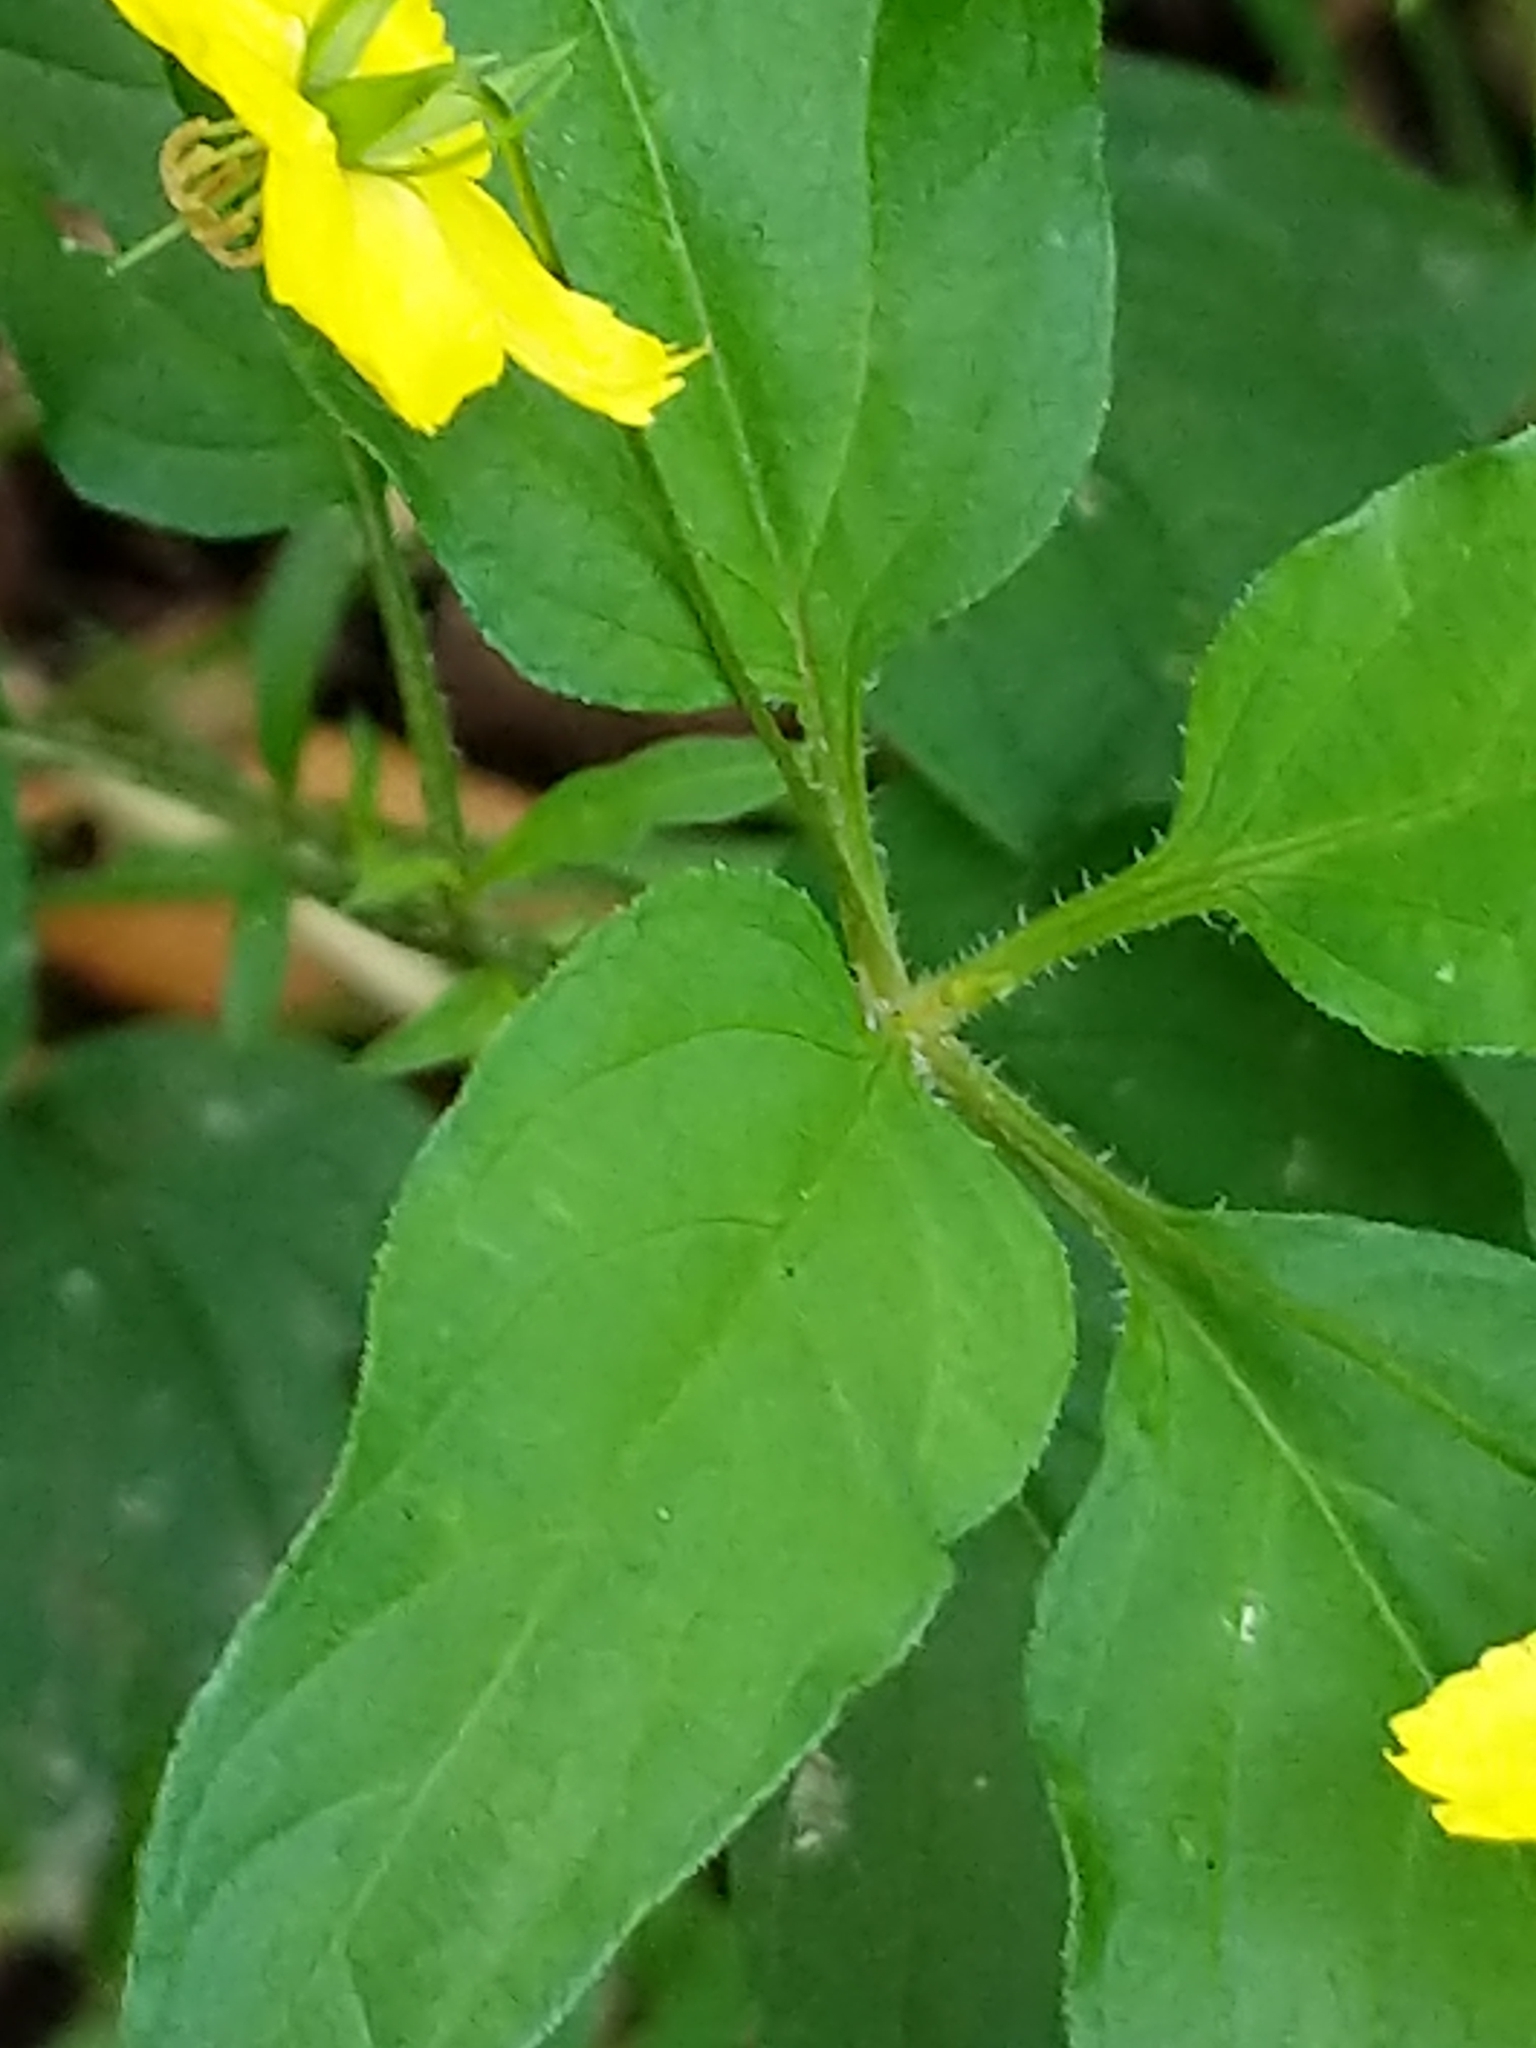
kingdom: Plantae
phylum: Tracheophyta
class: Magnoliopsida
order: Ericales
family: Primulaceae
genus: Lysimachia
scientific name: Lysimachia ciliata
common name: Fringed loosestrife
